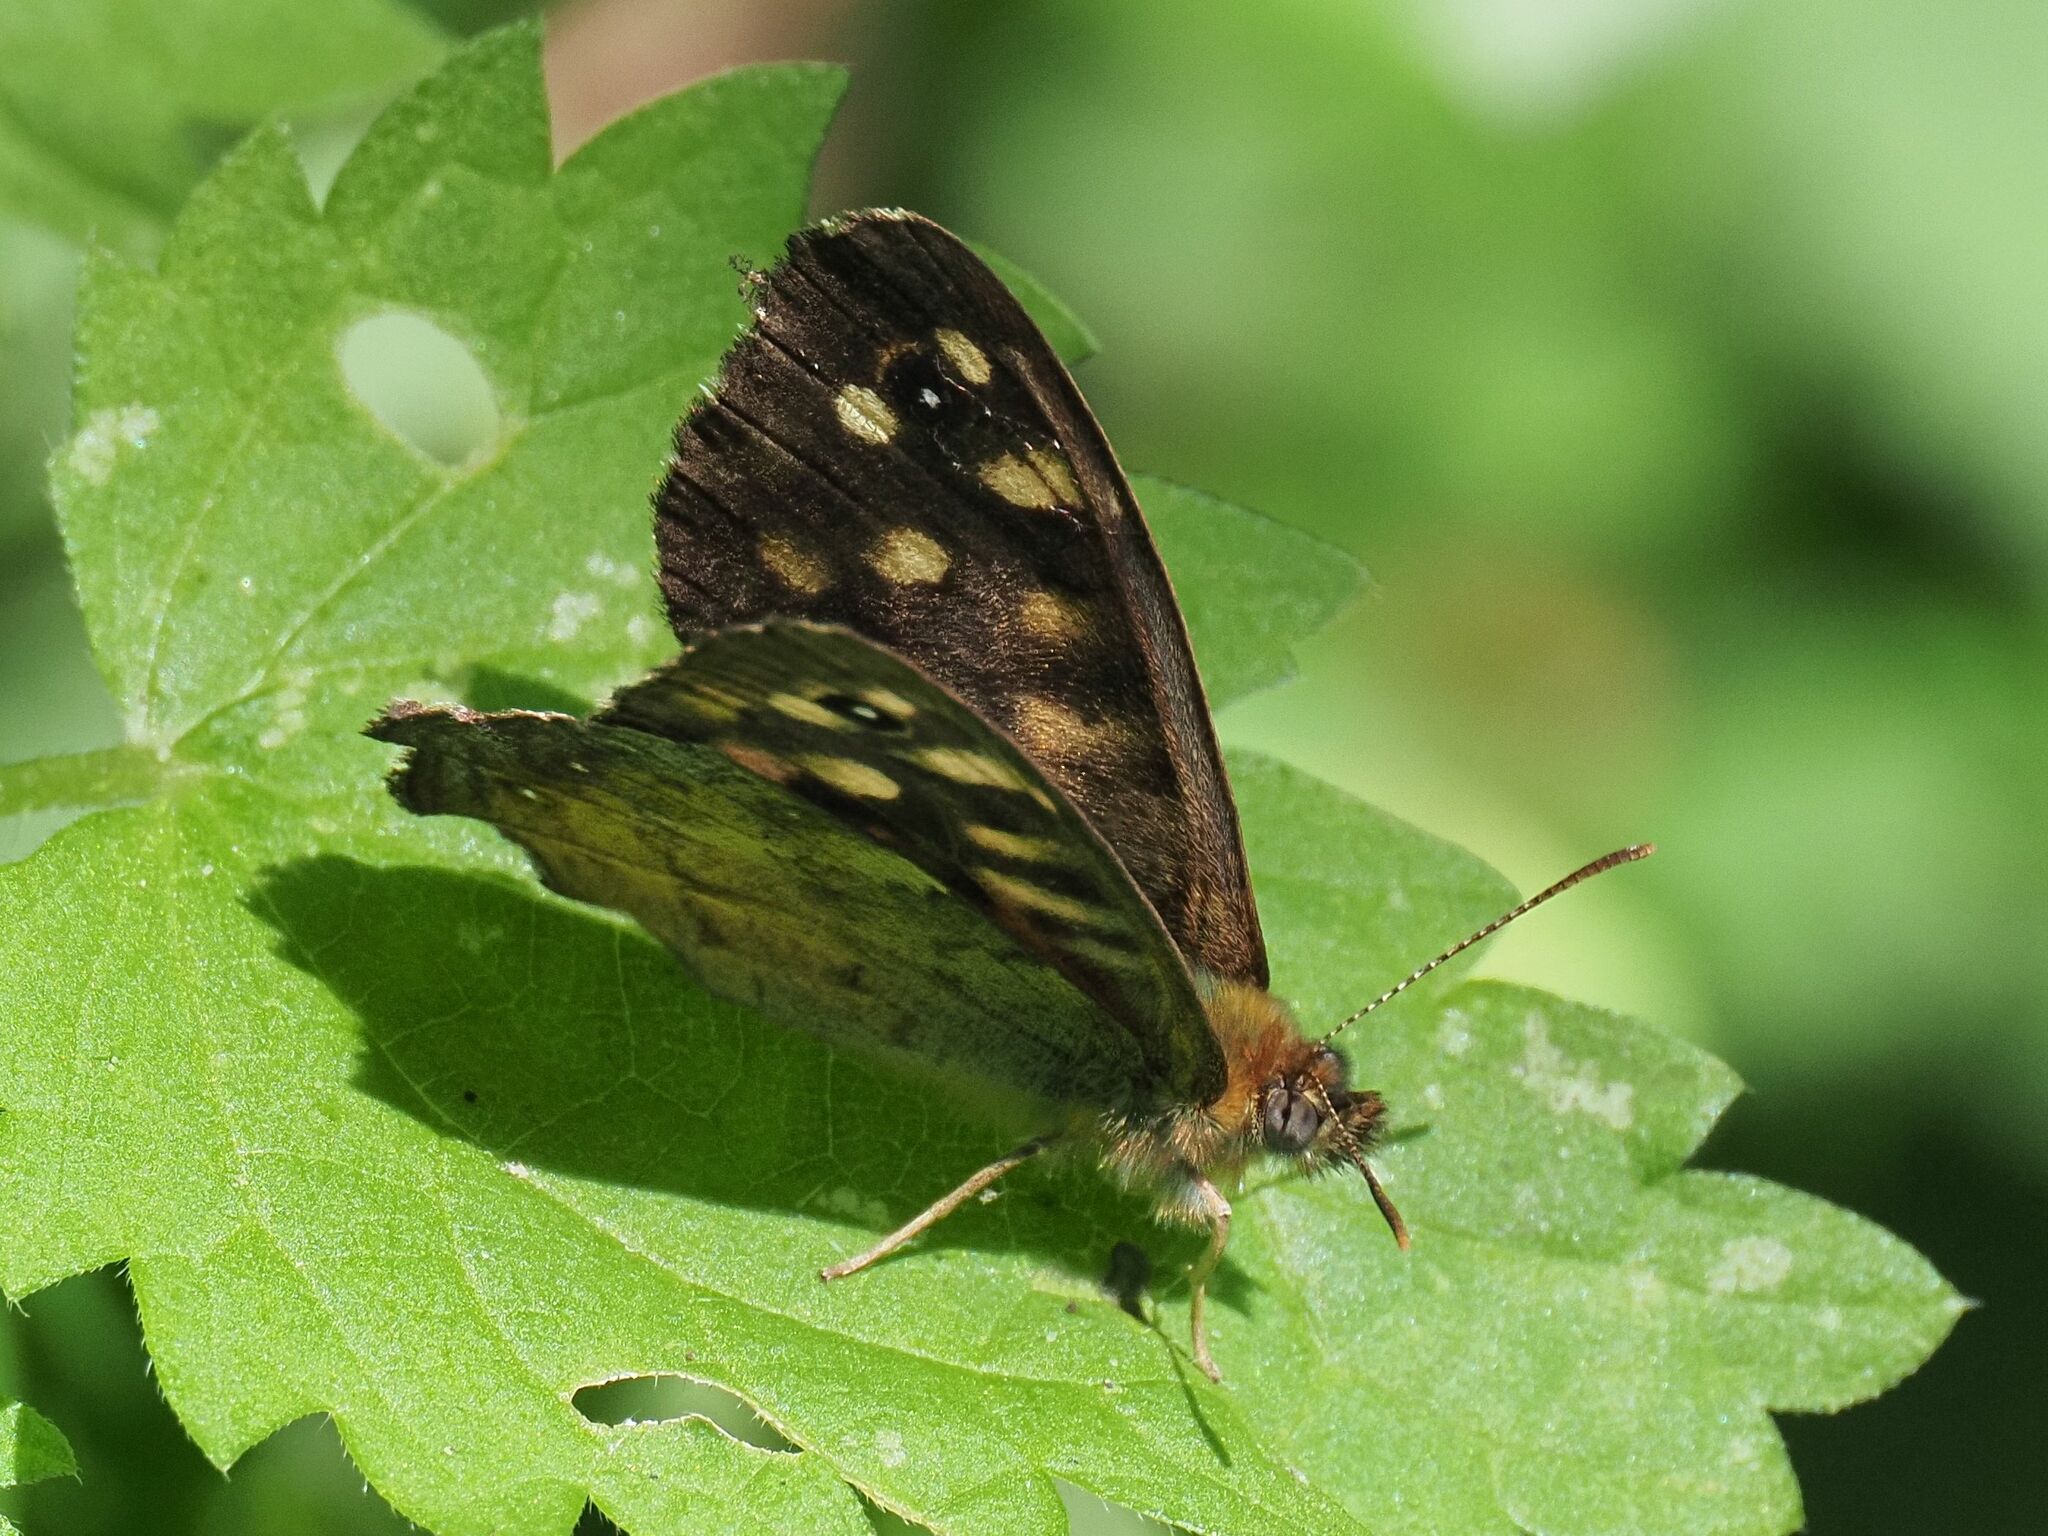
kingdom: Animalia
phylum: Arthropoda
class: Insecta
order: Lepidoptera
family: Nymphalidae
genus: Pararge
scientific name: Pararge aegeria
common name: Speckled wood
